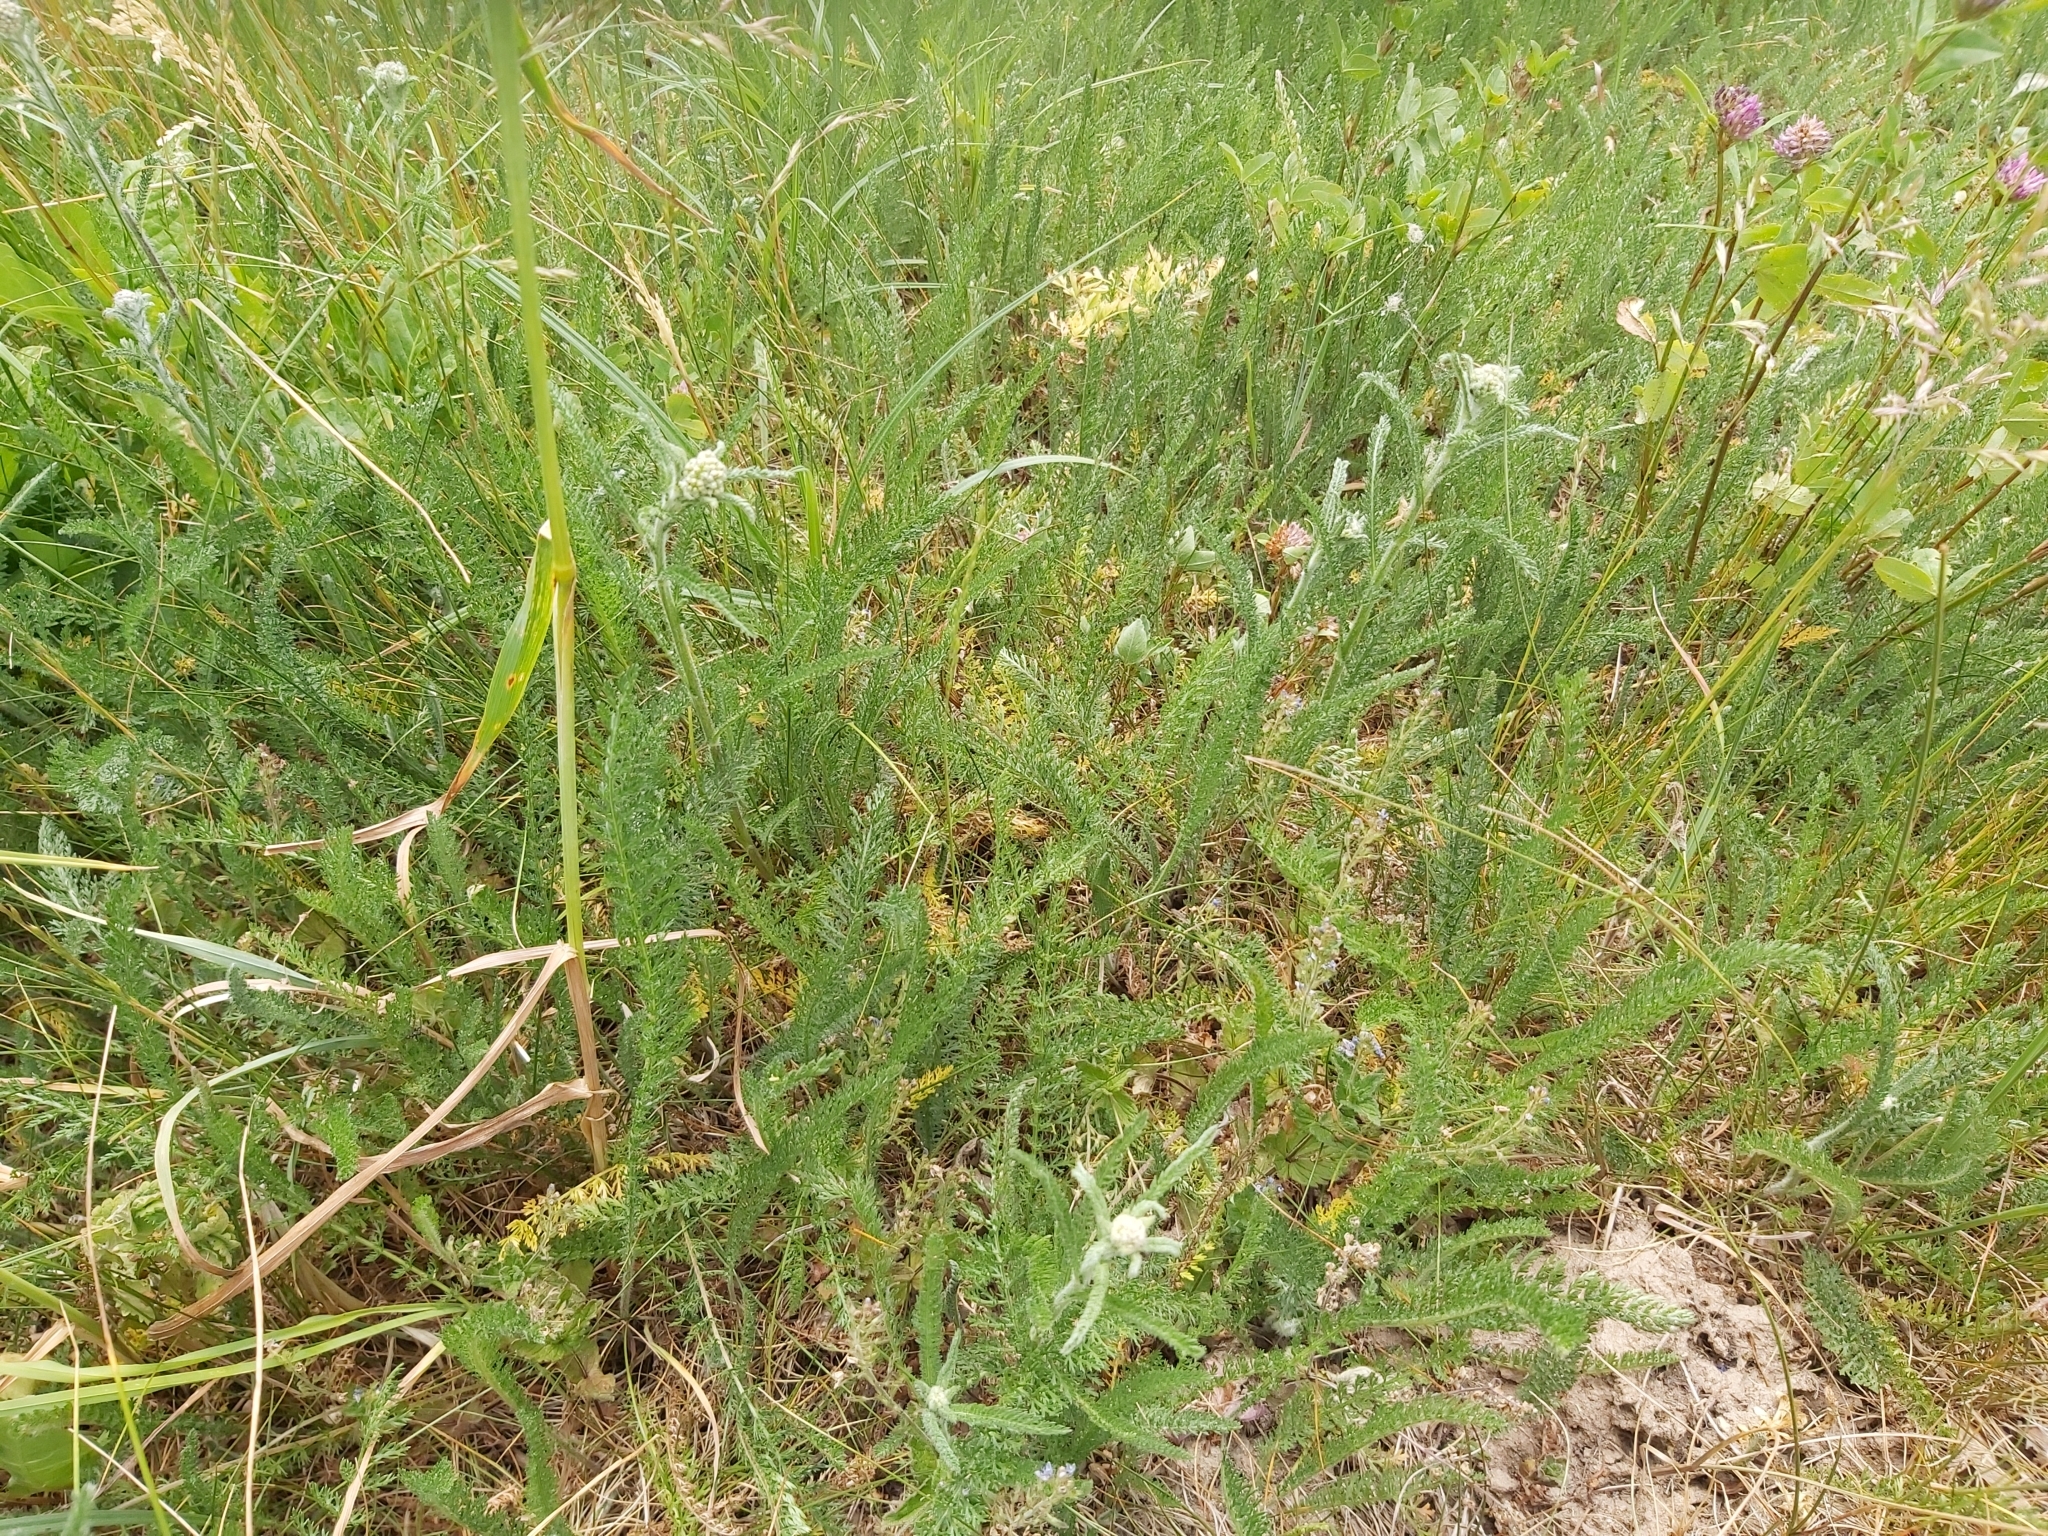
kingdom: Plantae
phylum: Tracheophyta
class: Magnoliopsida
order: Asterales
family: Asteraceae
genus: Achillea
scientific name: Achillea millefolium
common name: Yarrow
